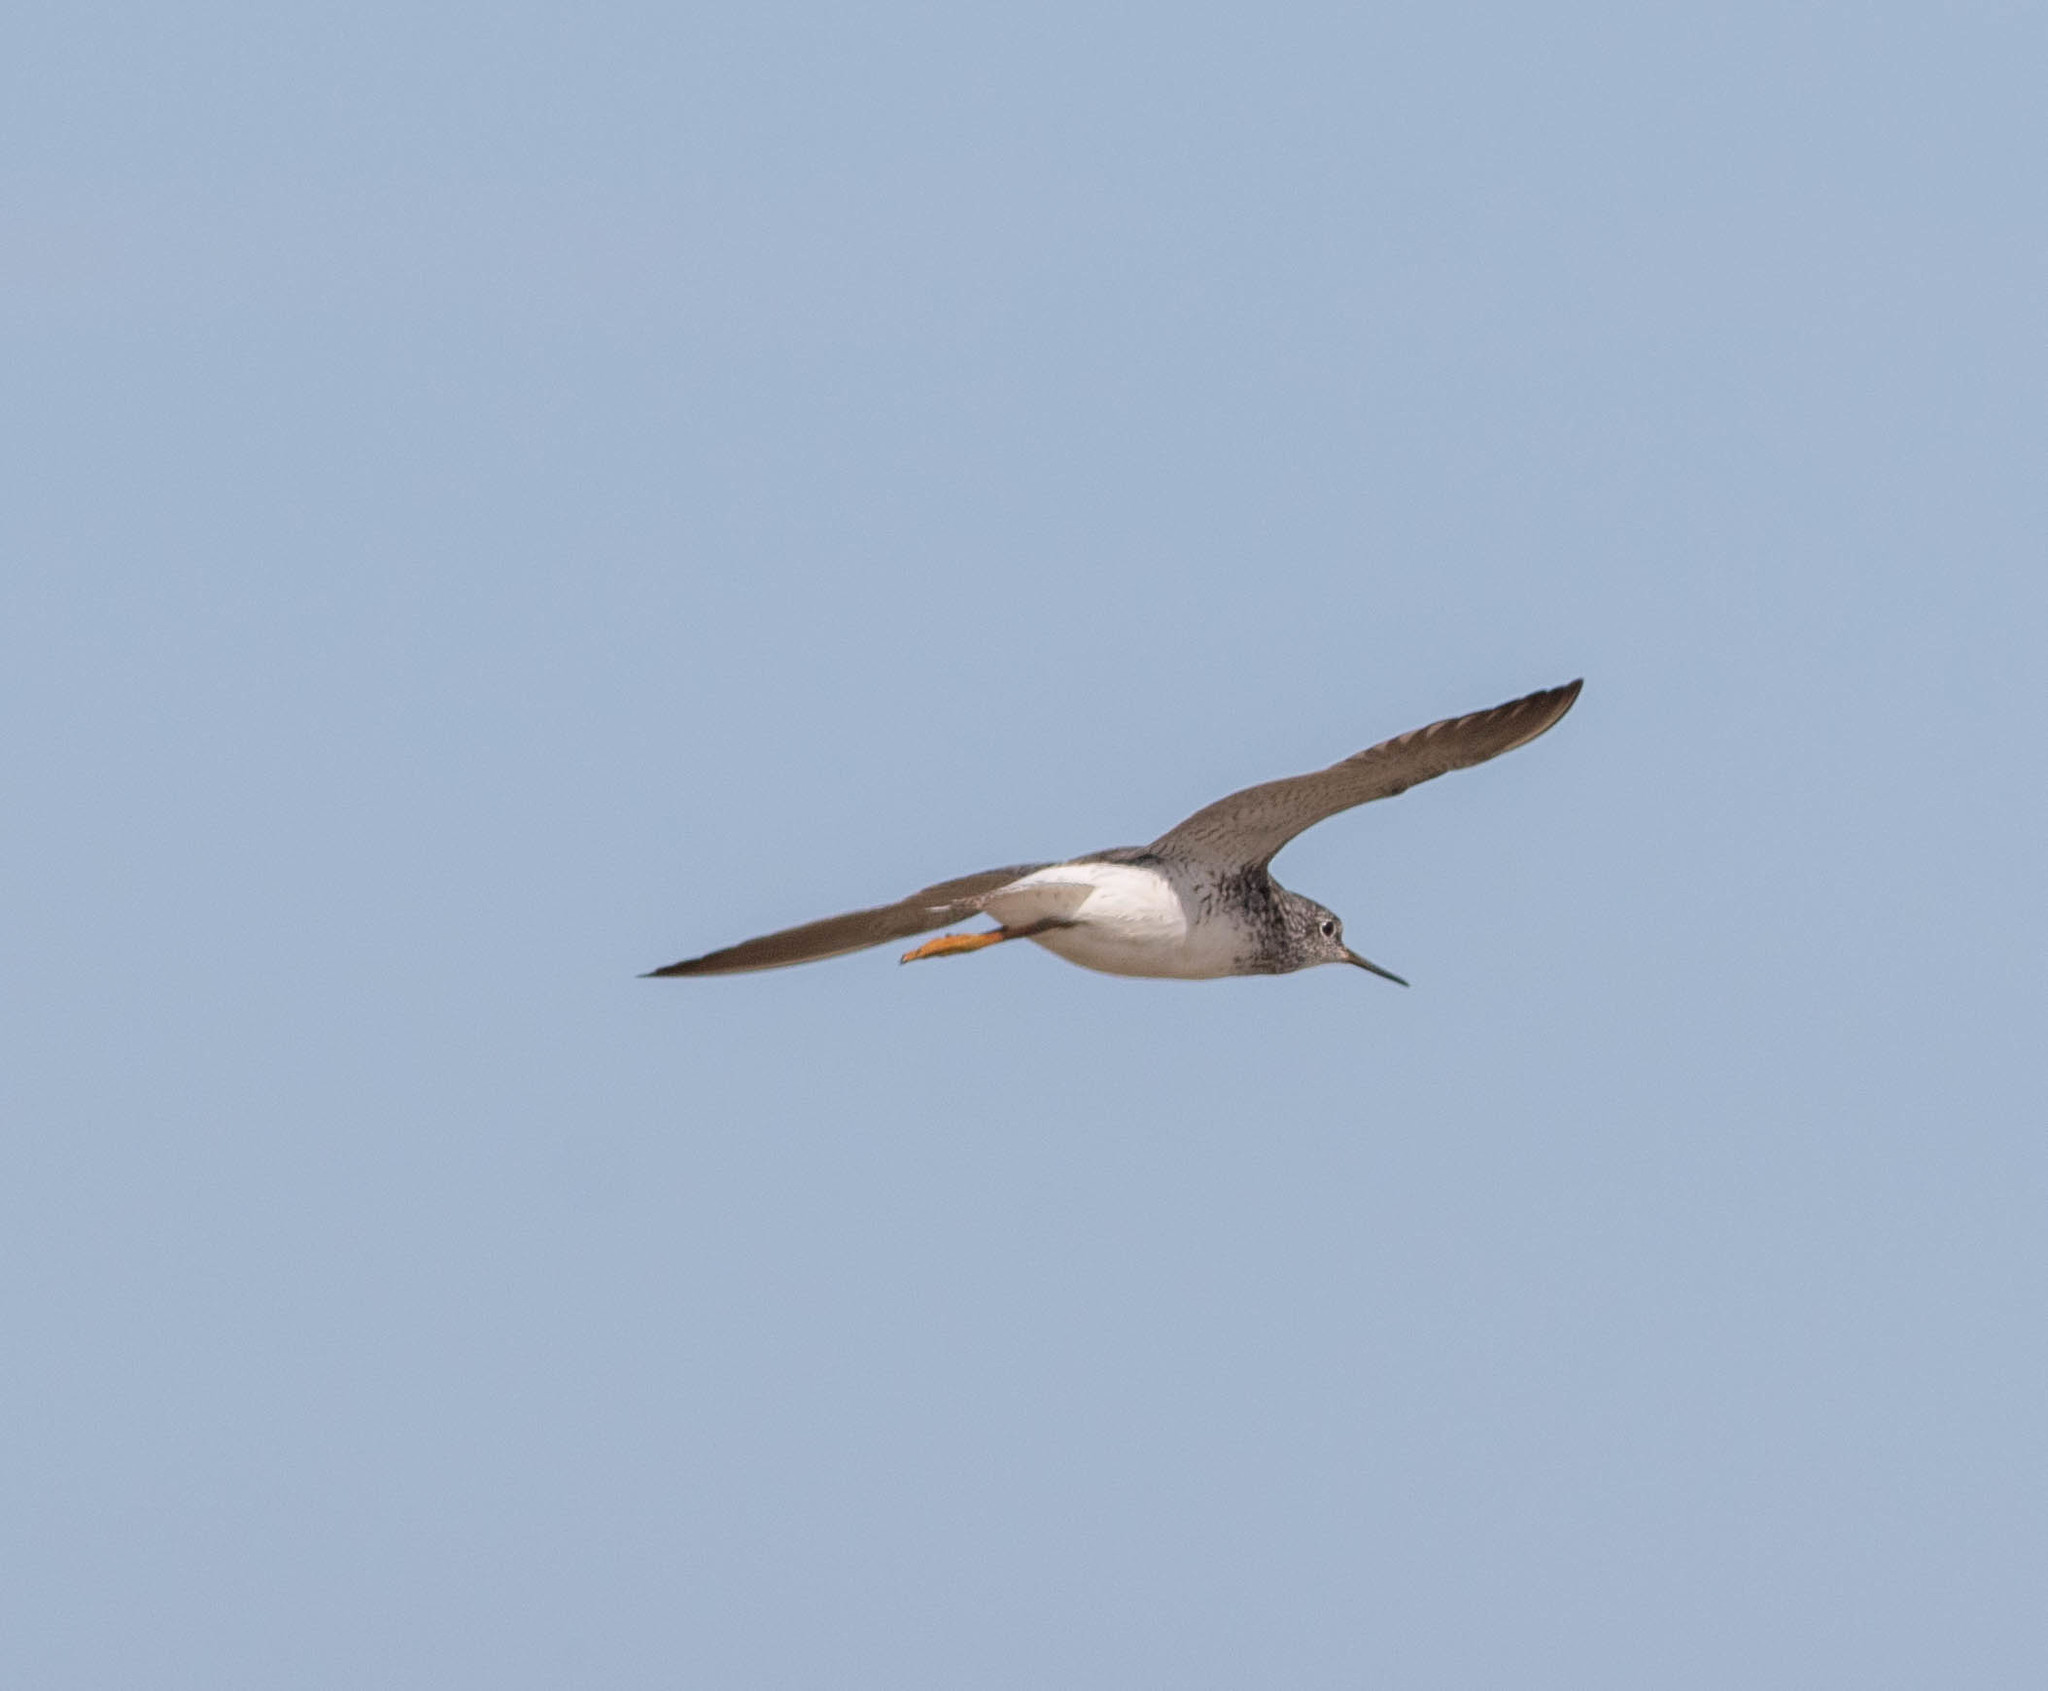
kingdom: Animalia
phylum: Chordata
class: Aves
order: Charadriiformes
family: Scolopacidae
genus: Tringa
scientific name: Tringa flavipes
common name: Lesser yellowlegs
